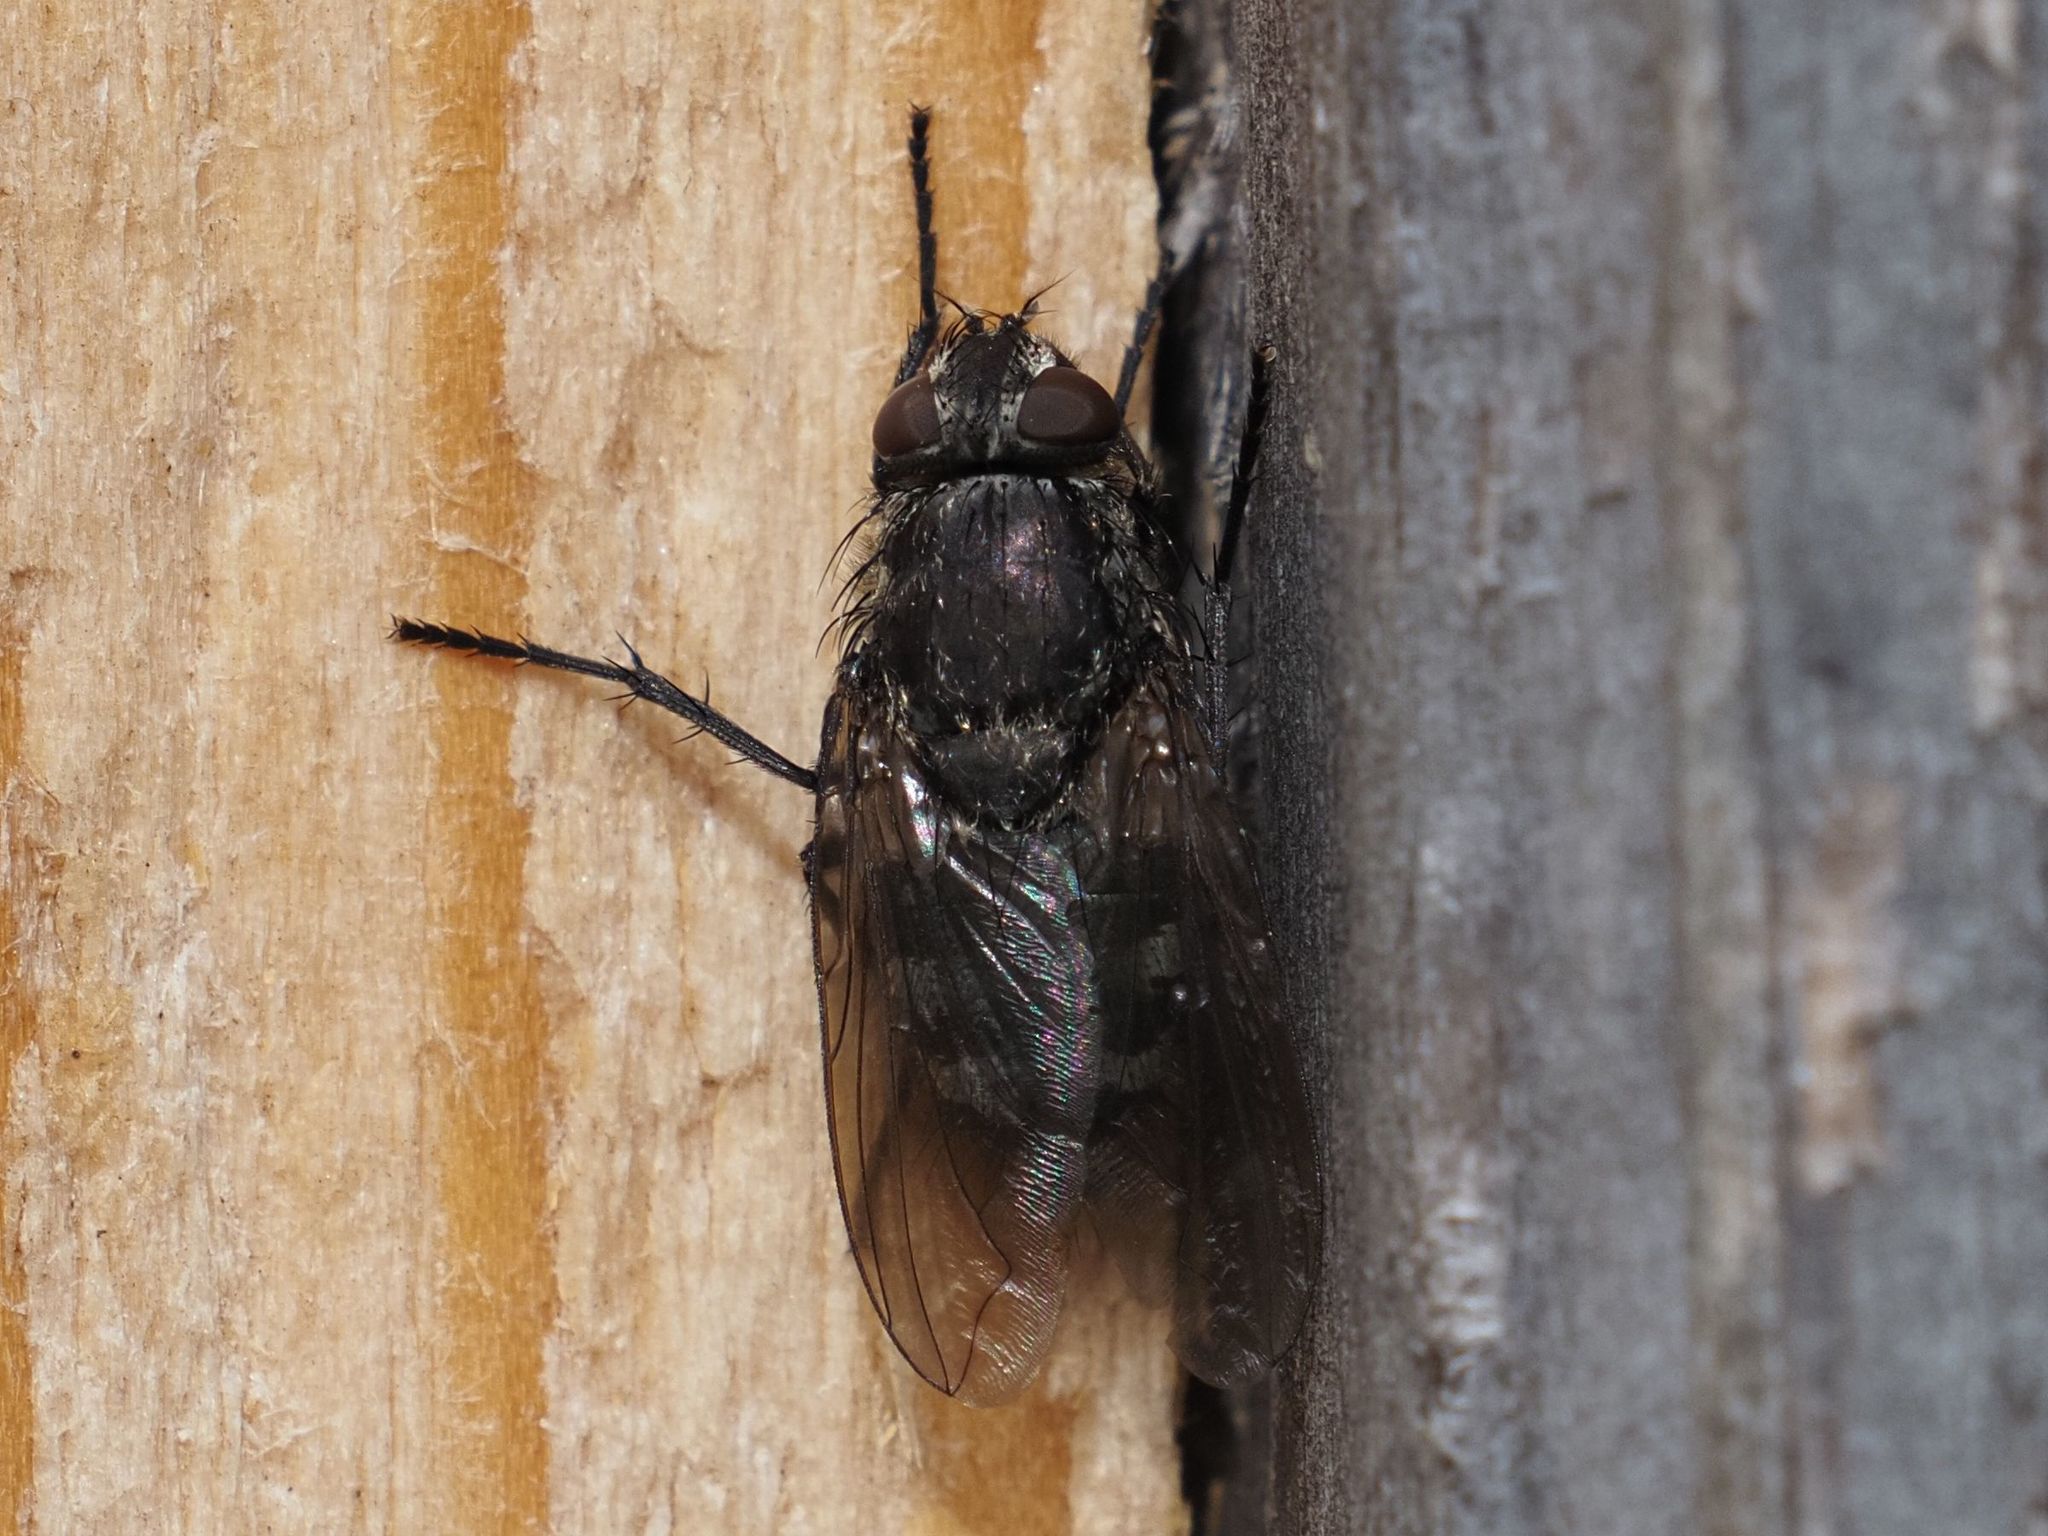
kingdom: Animalia
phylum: Arthropoda
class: Insecta
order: Diptera
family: Polleniidae
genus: Pollenia
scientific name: Pollenia intermedia
